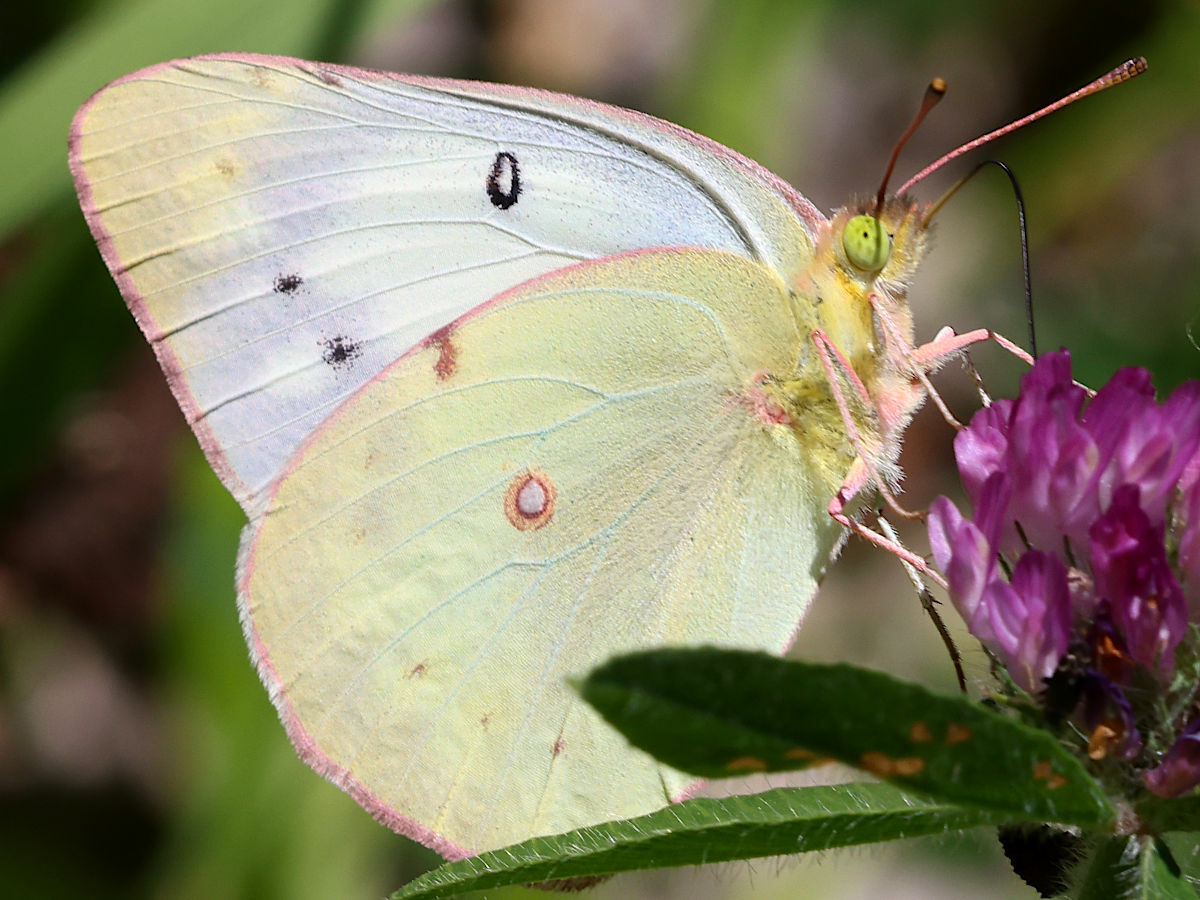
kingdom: Animalia
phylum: Arthropoda
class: Insecta
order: Lepidoptera
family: Pieridae
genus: Colias
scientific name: Colias eurytheme
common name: Alfalfa butterfly
